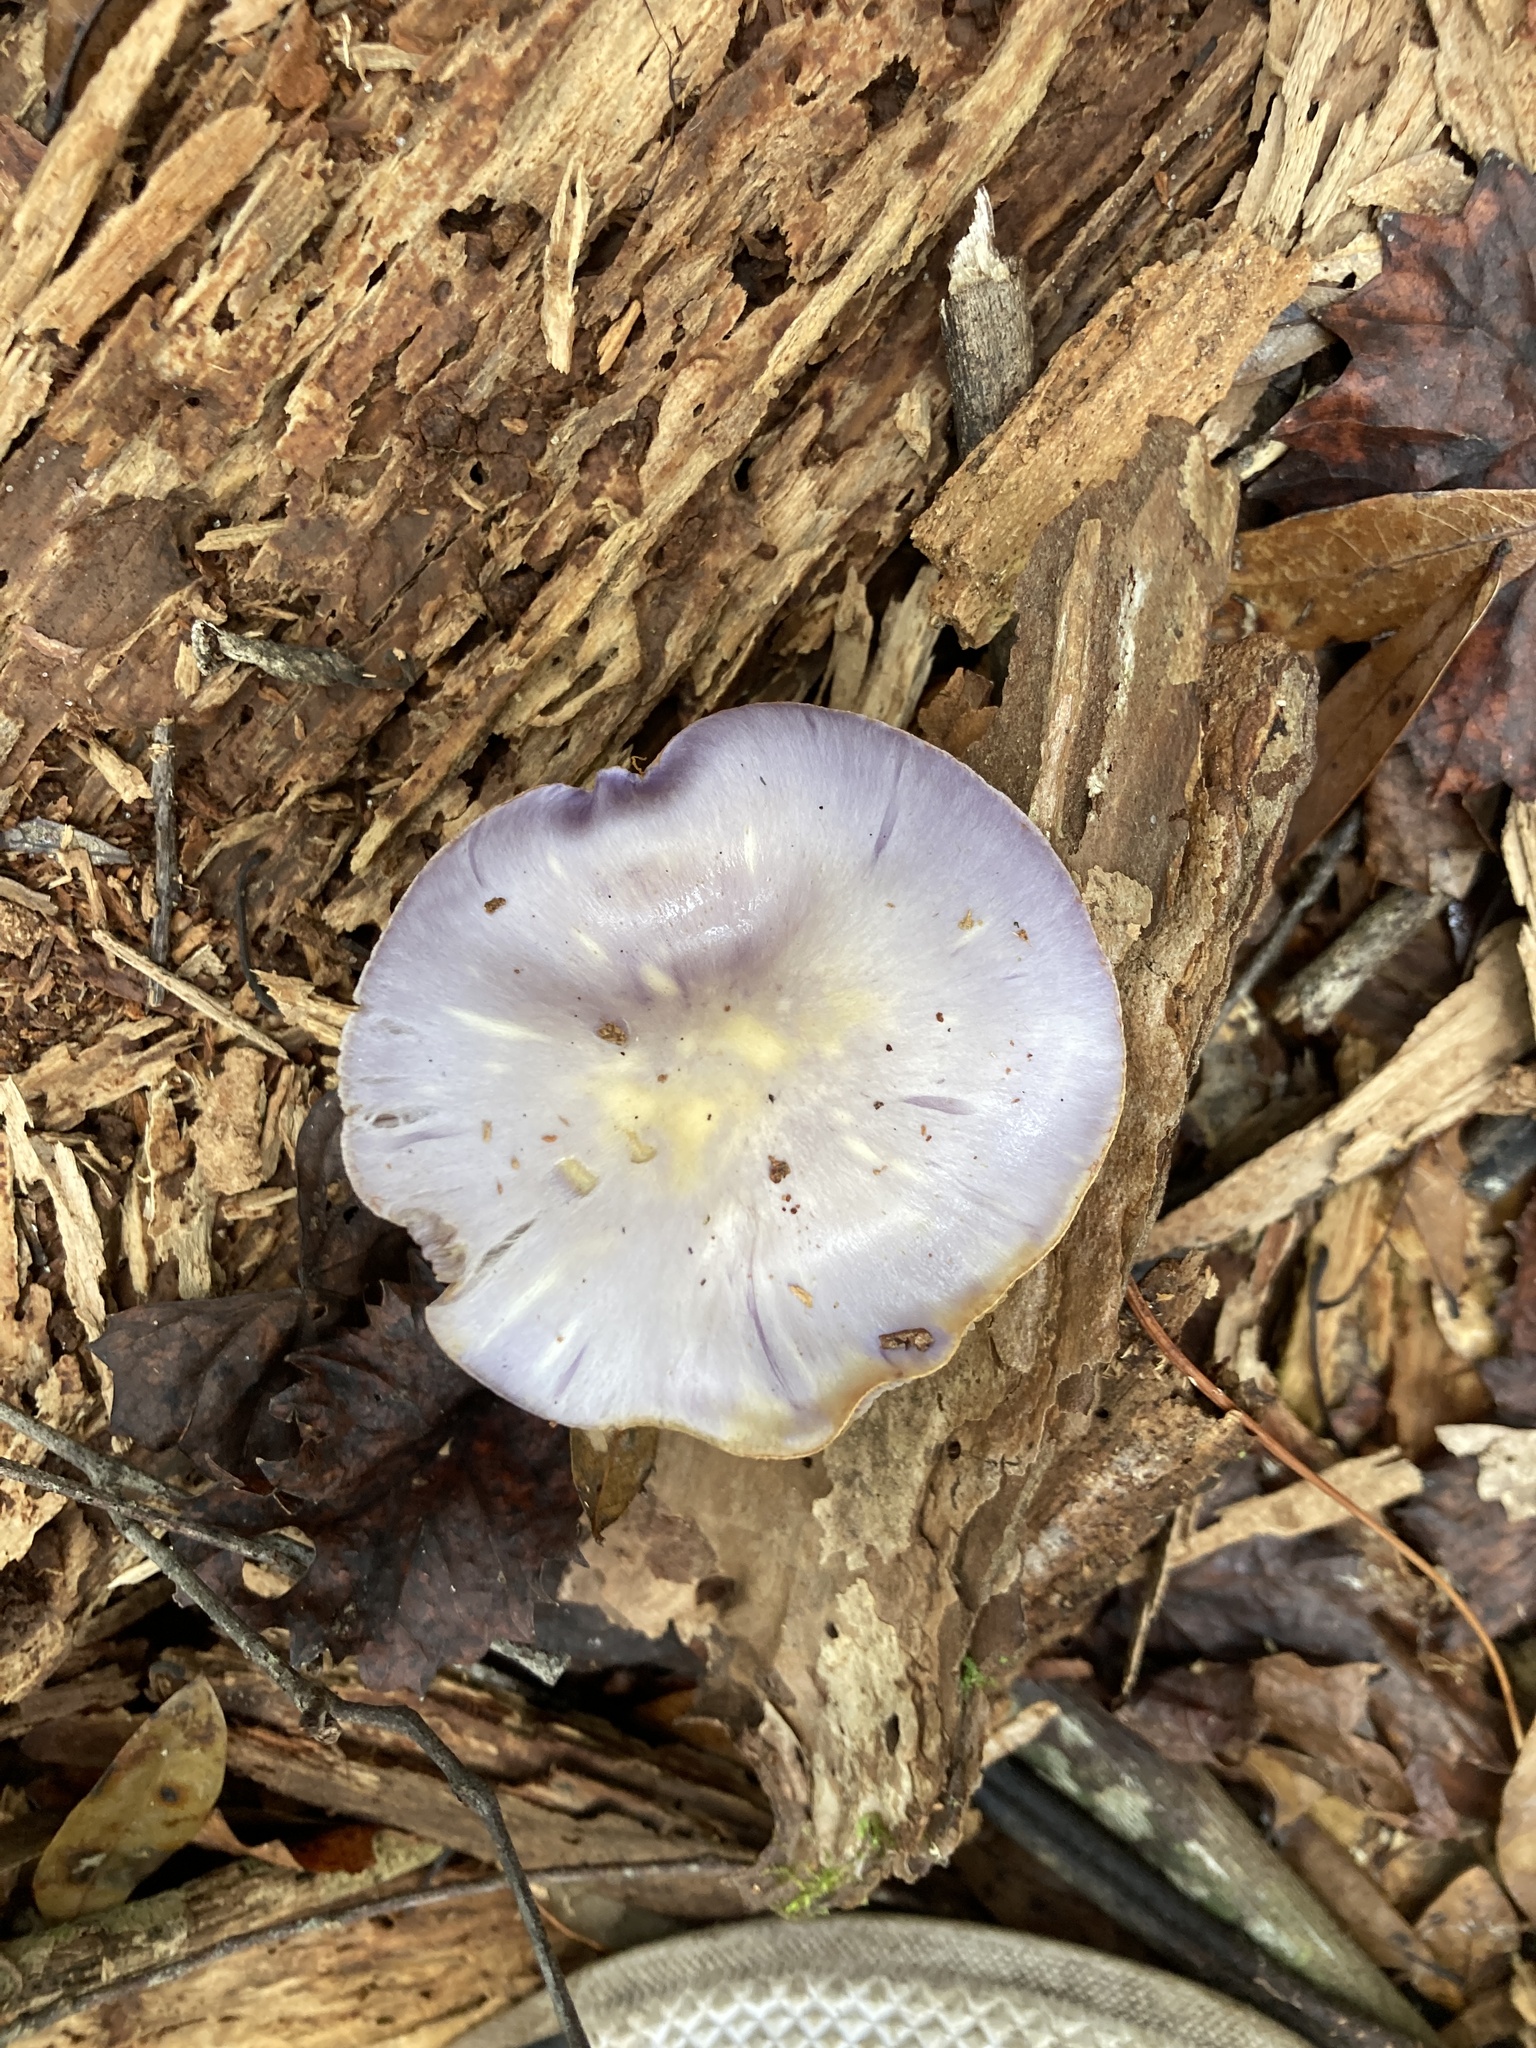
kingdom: Fungi
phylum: Basidiomycota
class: Agaricomycetes
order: Agaricales
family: Cortinariaceae
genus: Cortinarius
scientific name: Cortinarius iodes
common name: Viscid violet cort
